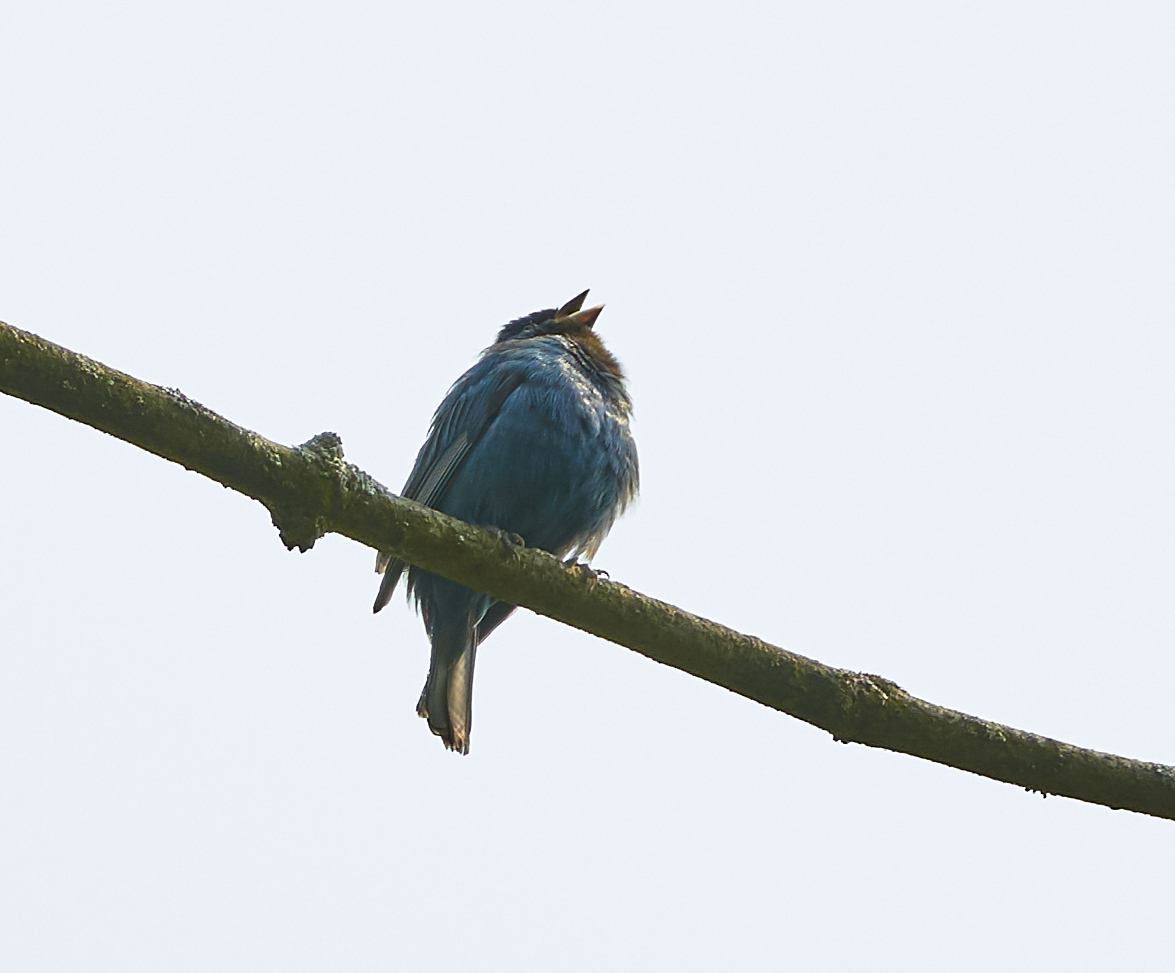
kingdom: Animalia
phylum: Chordata
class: Aves
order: Passeriformes
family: Cardinalidae
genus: Passerina
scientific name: Passerina cyanea
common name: Indigo bunting
